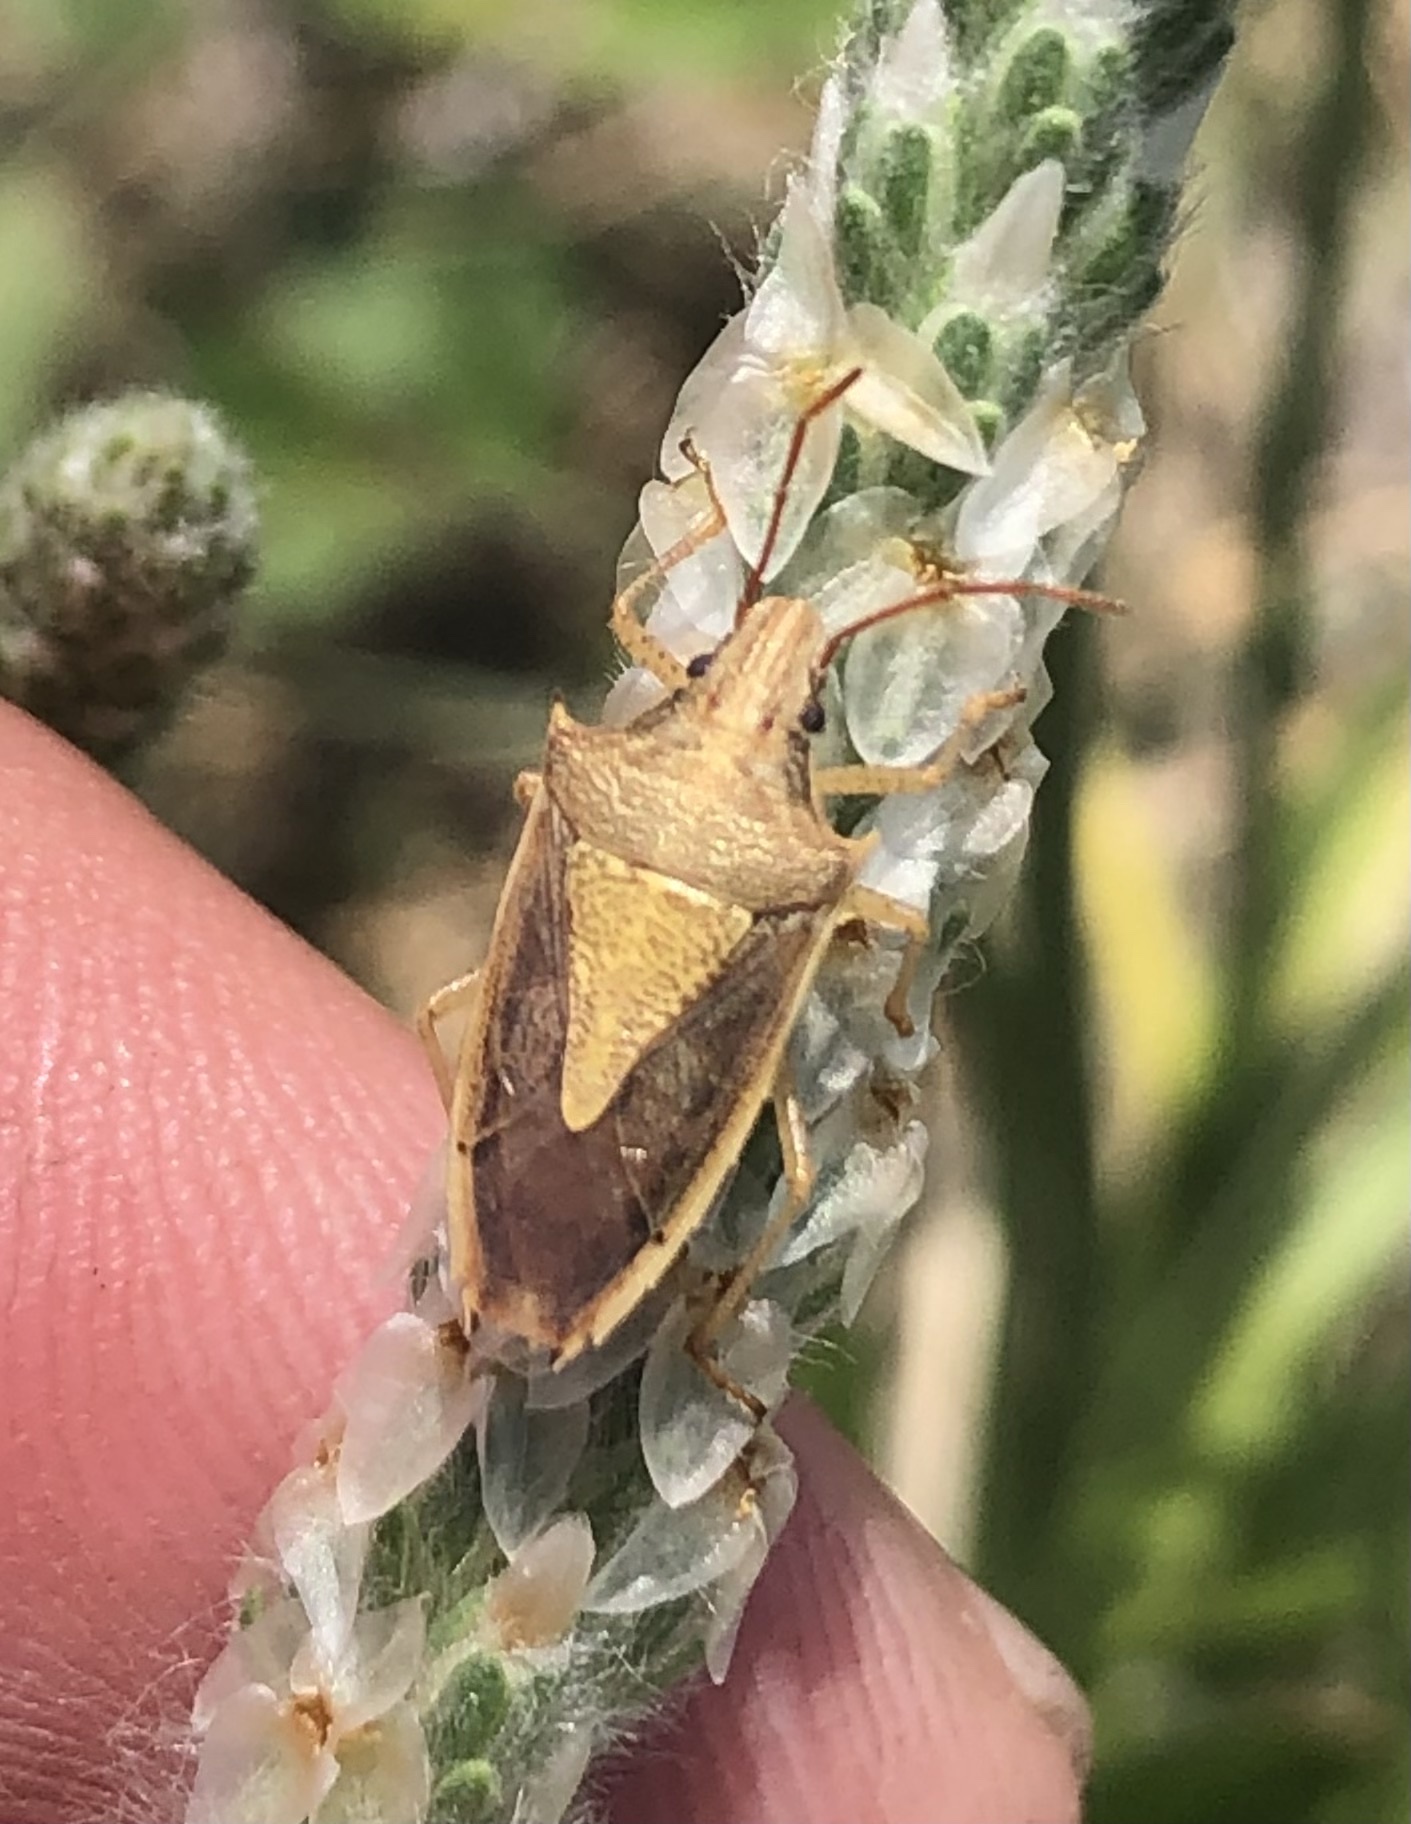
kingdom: Animalia
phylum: Arthropoda
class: Insecta
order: Hemiptera
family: Pentatomidae
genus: Oebalus
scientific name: Oebalus pugnax
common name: Rice stink bug
